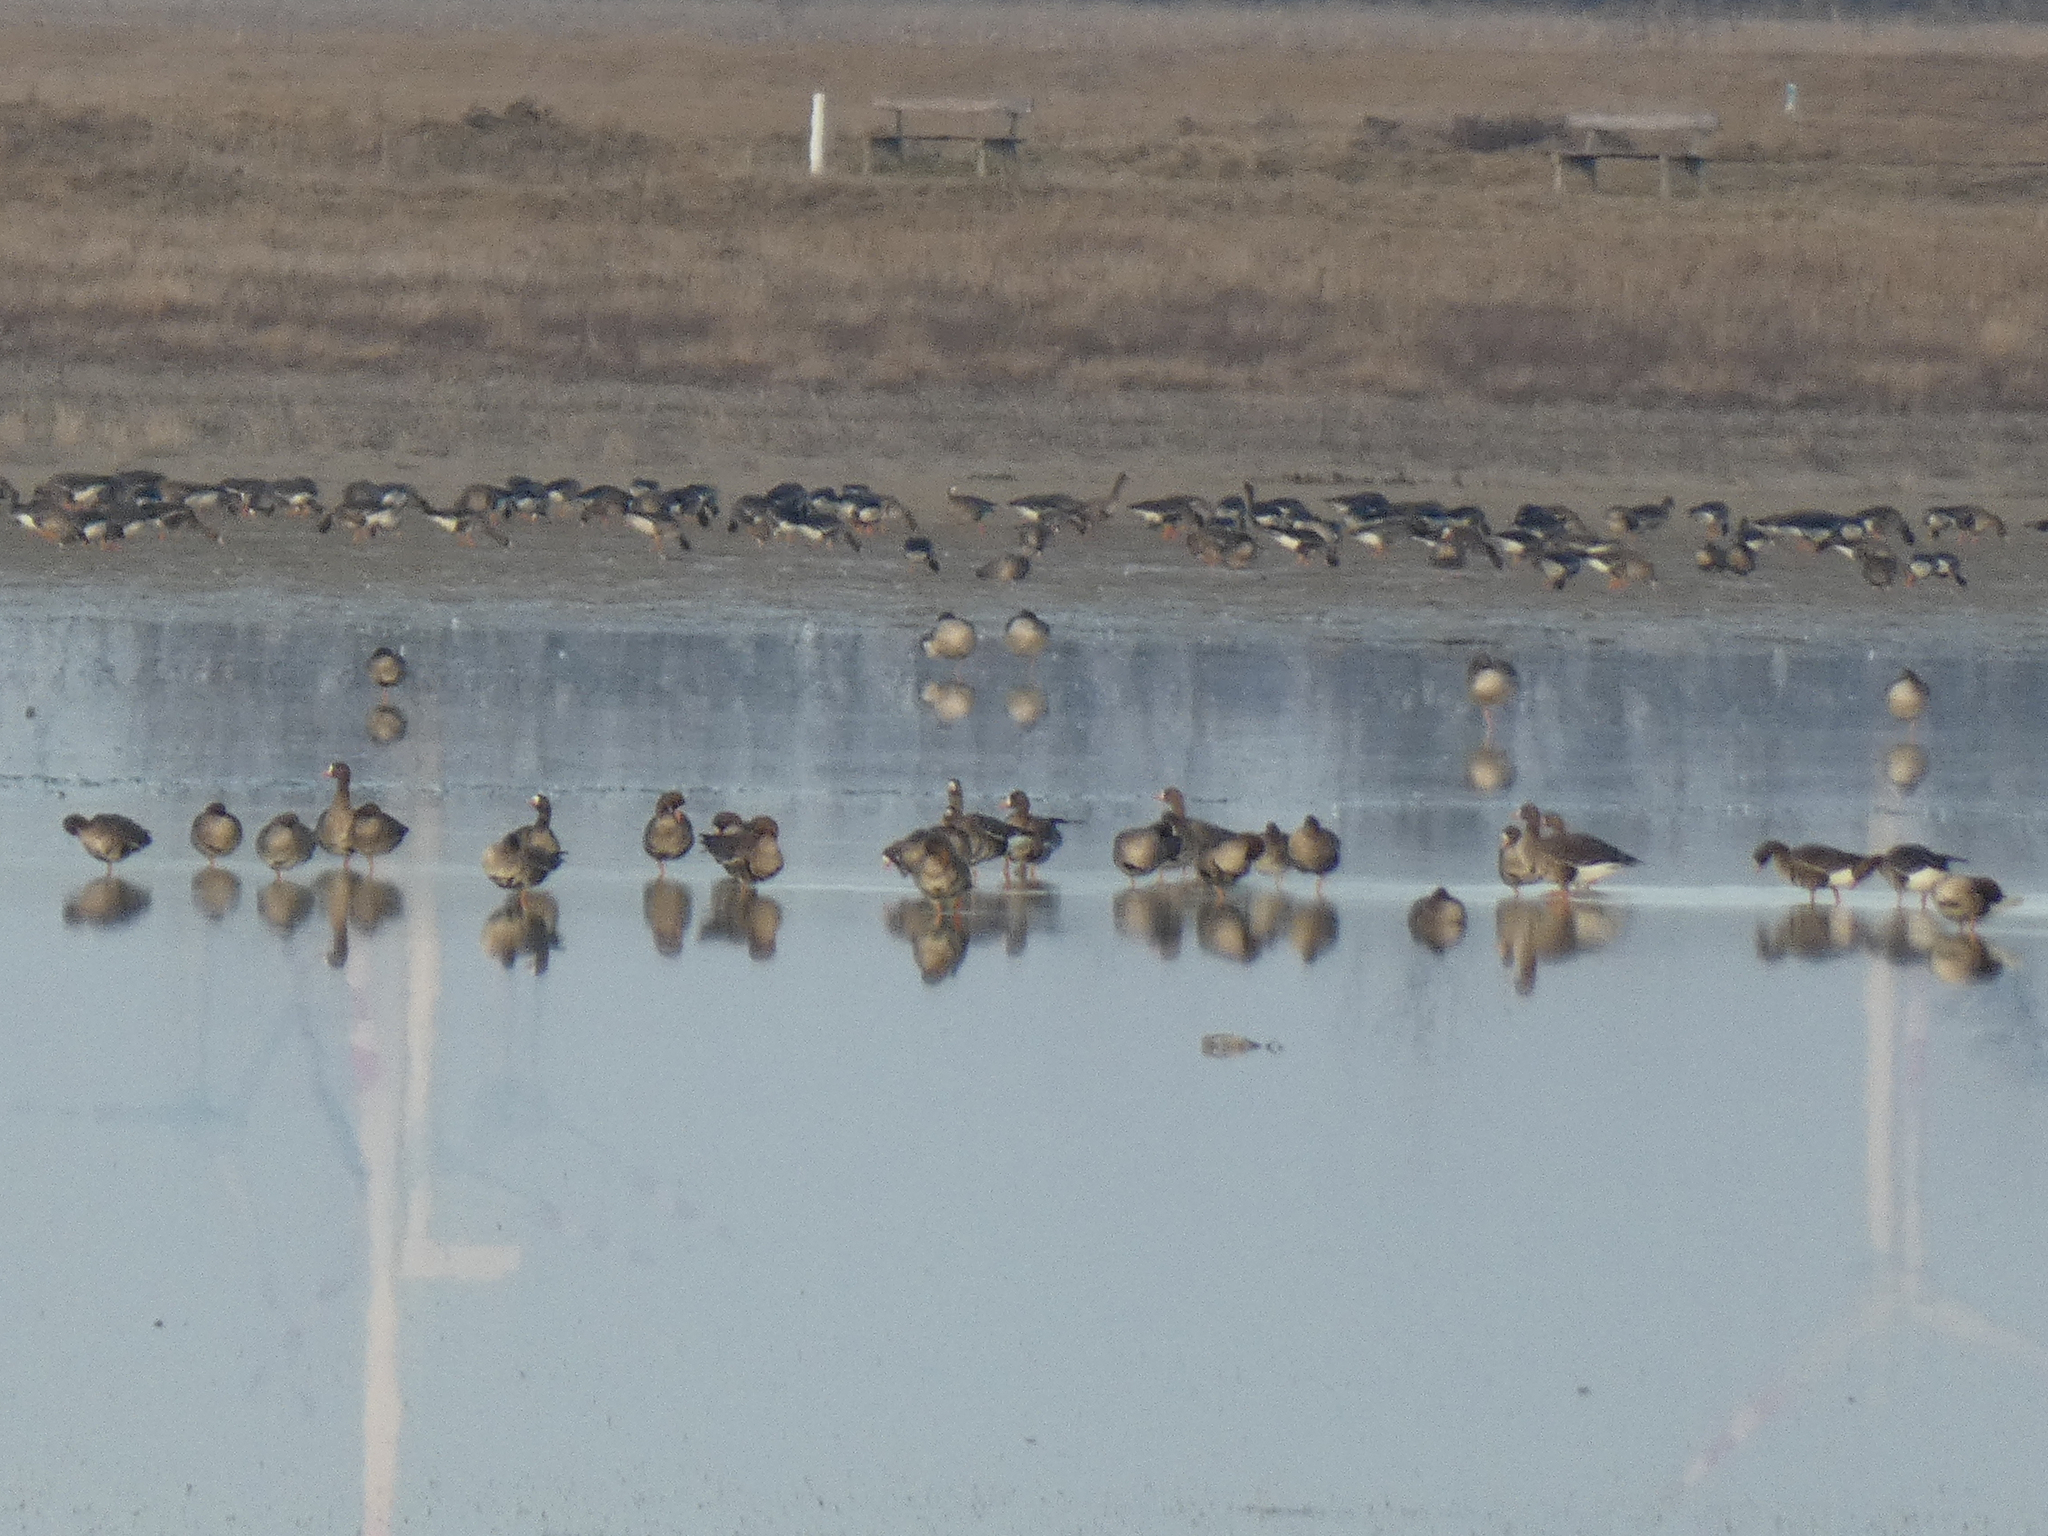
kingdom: Animalia
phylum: Chordata
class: Aves
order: Anseriformes
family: Anatidae
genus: Anser
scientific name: Anser albifrons
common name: Greater white-fronted goose
